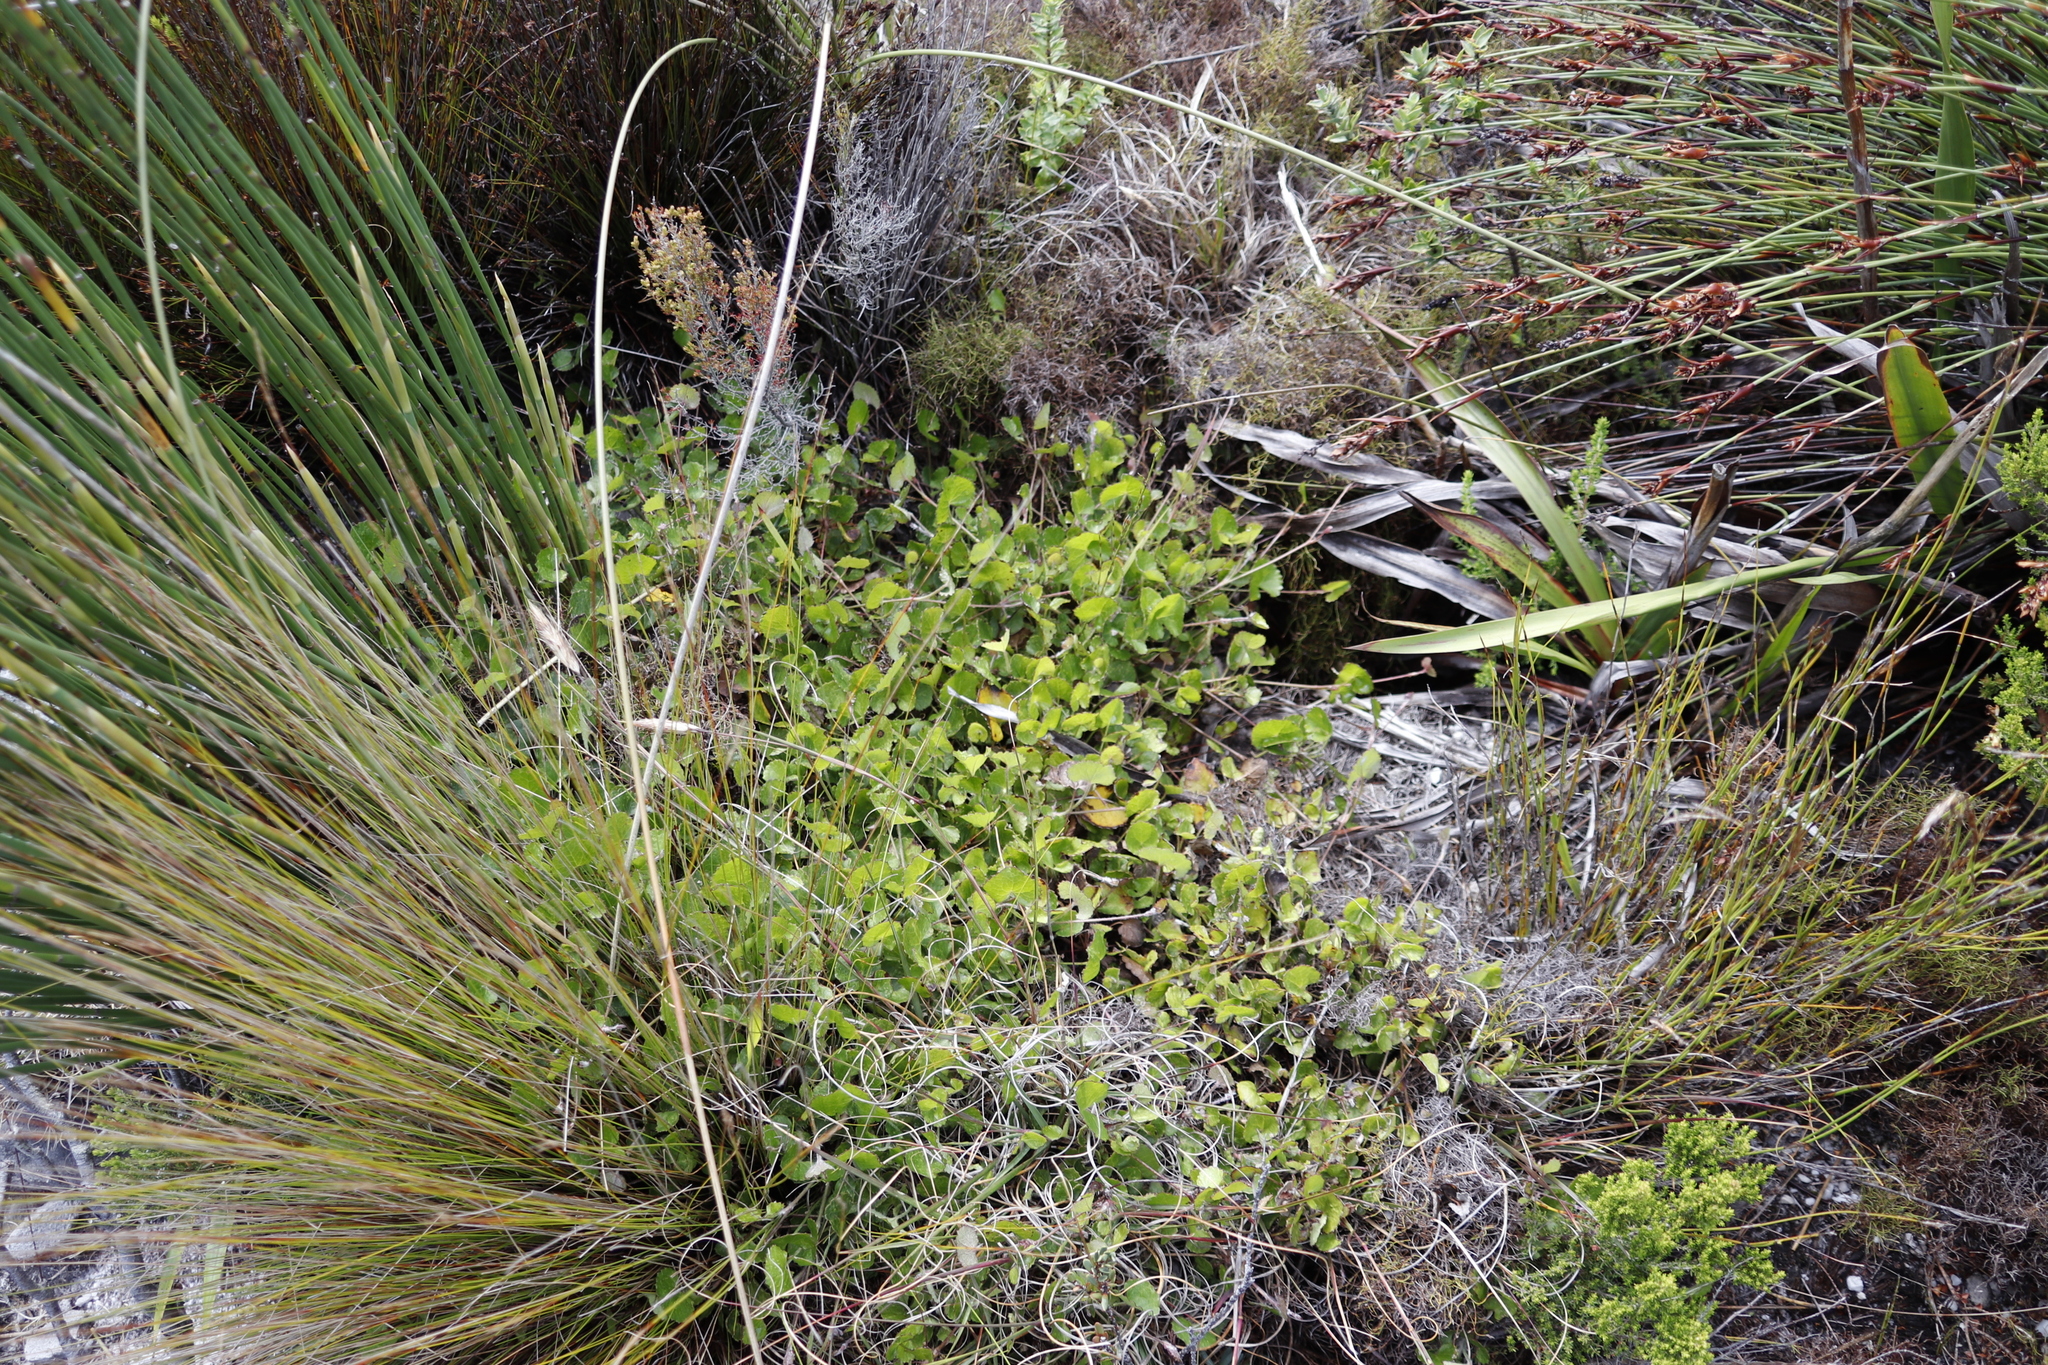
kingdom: Plantae
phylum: Tracheophyta
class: Magnoliopsida
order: Apiales
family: Apiaceae
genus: Centella
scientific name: Centella eriantha
